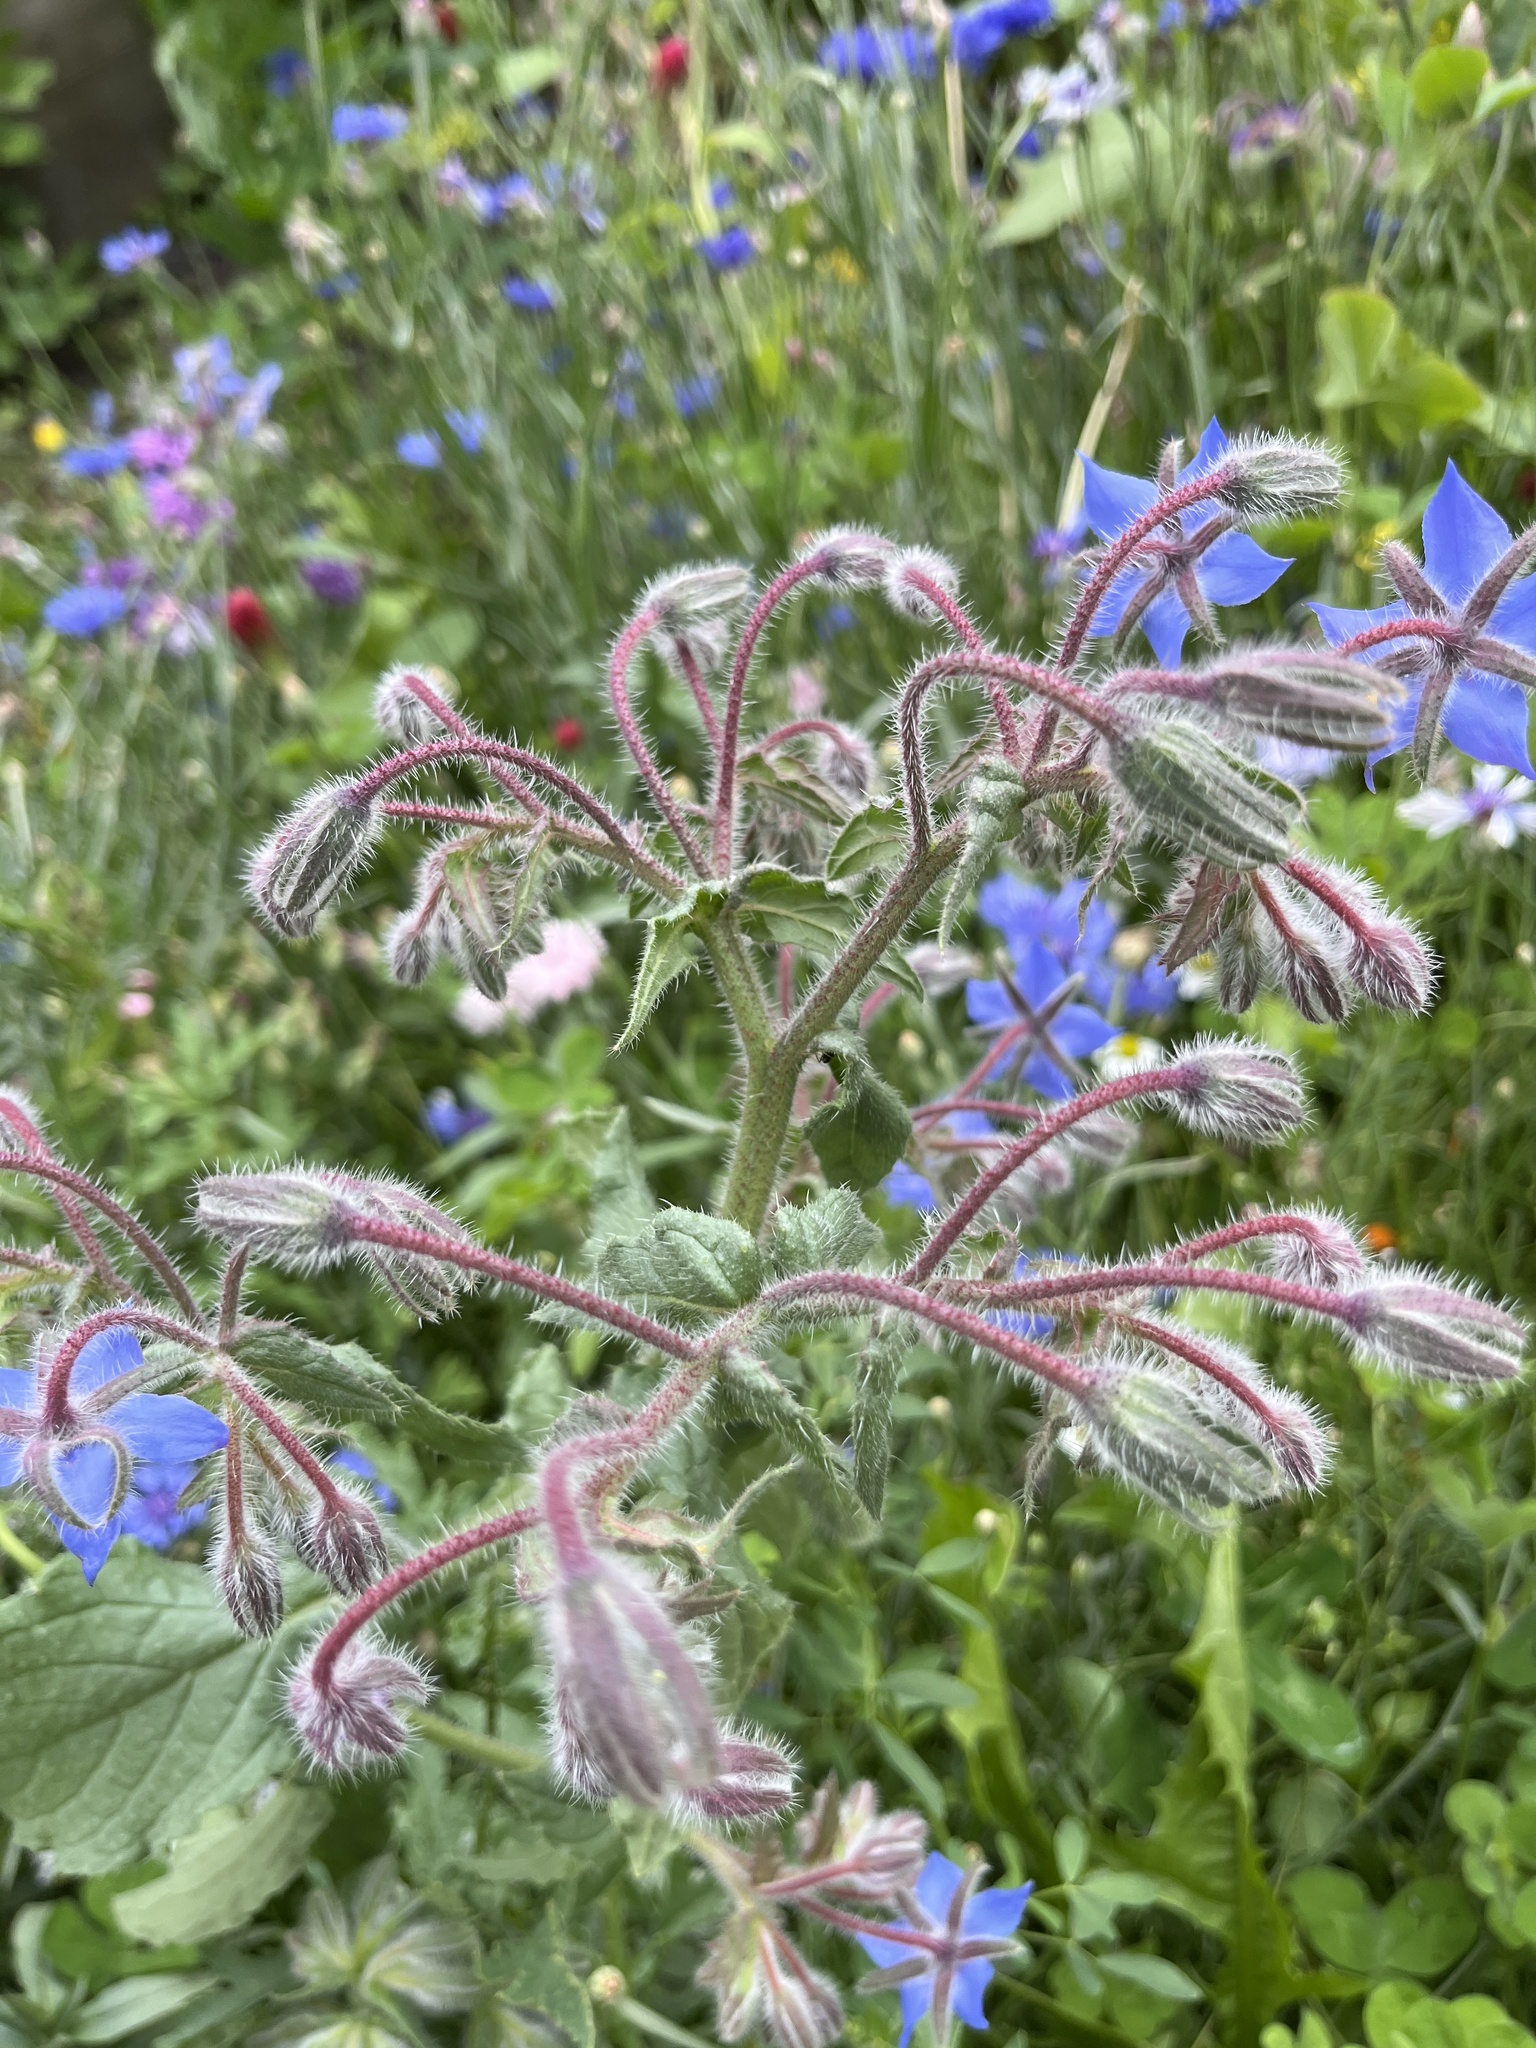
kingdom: Plantae
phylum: Tracheophyta
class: Magnoliopsida
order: Boraginales
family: Boraginaceae
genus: Borago
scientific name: Borago officinalis
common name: Borage
